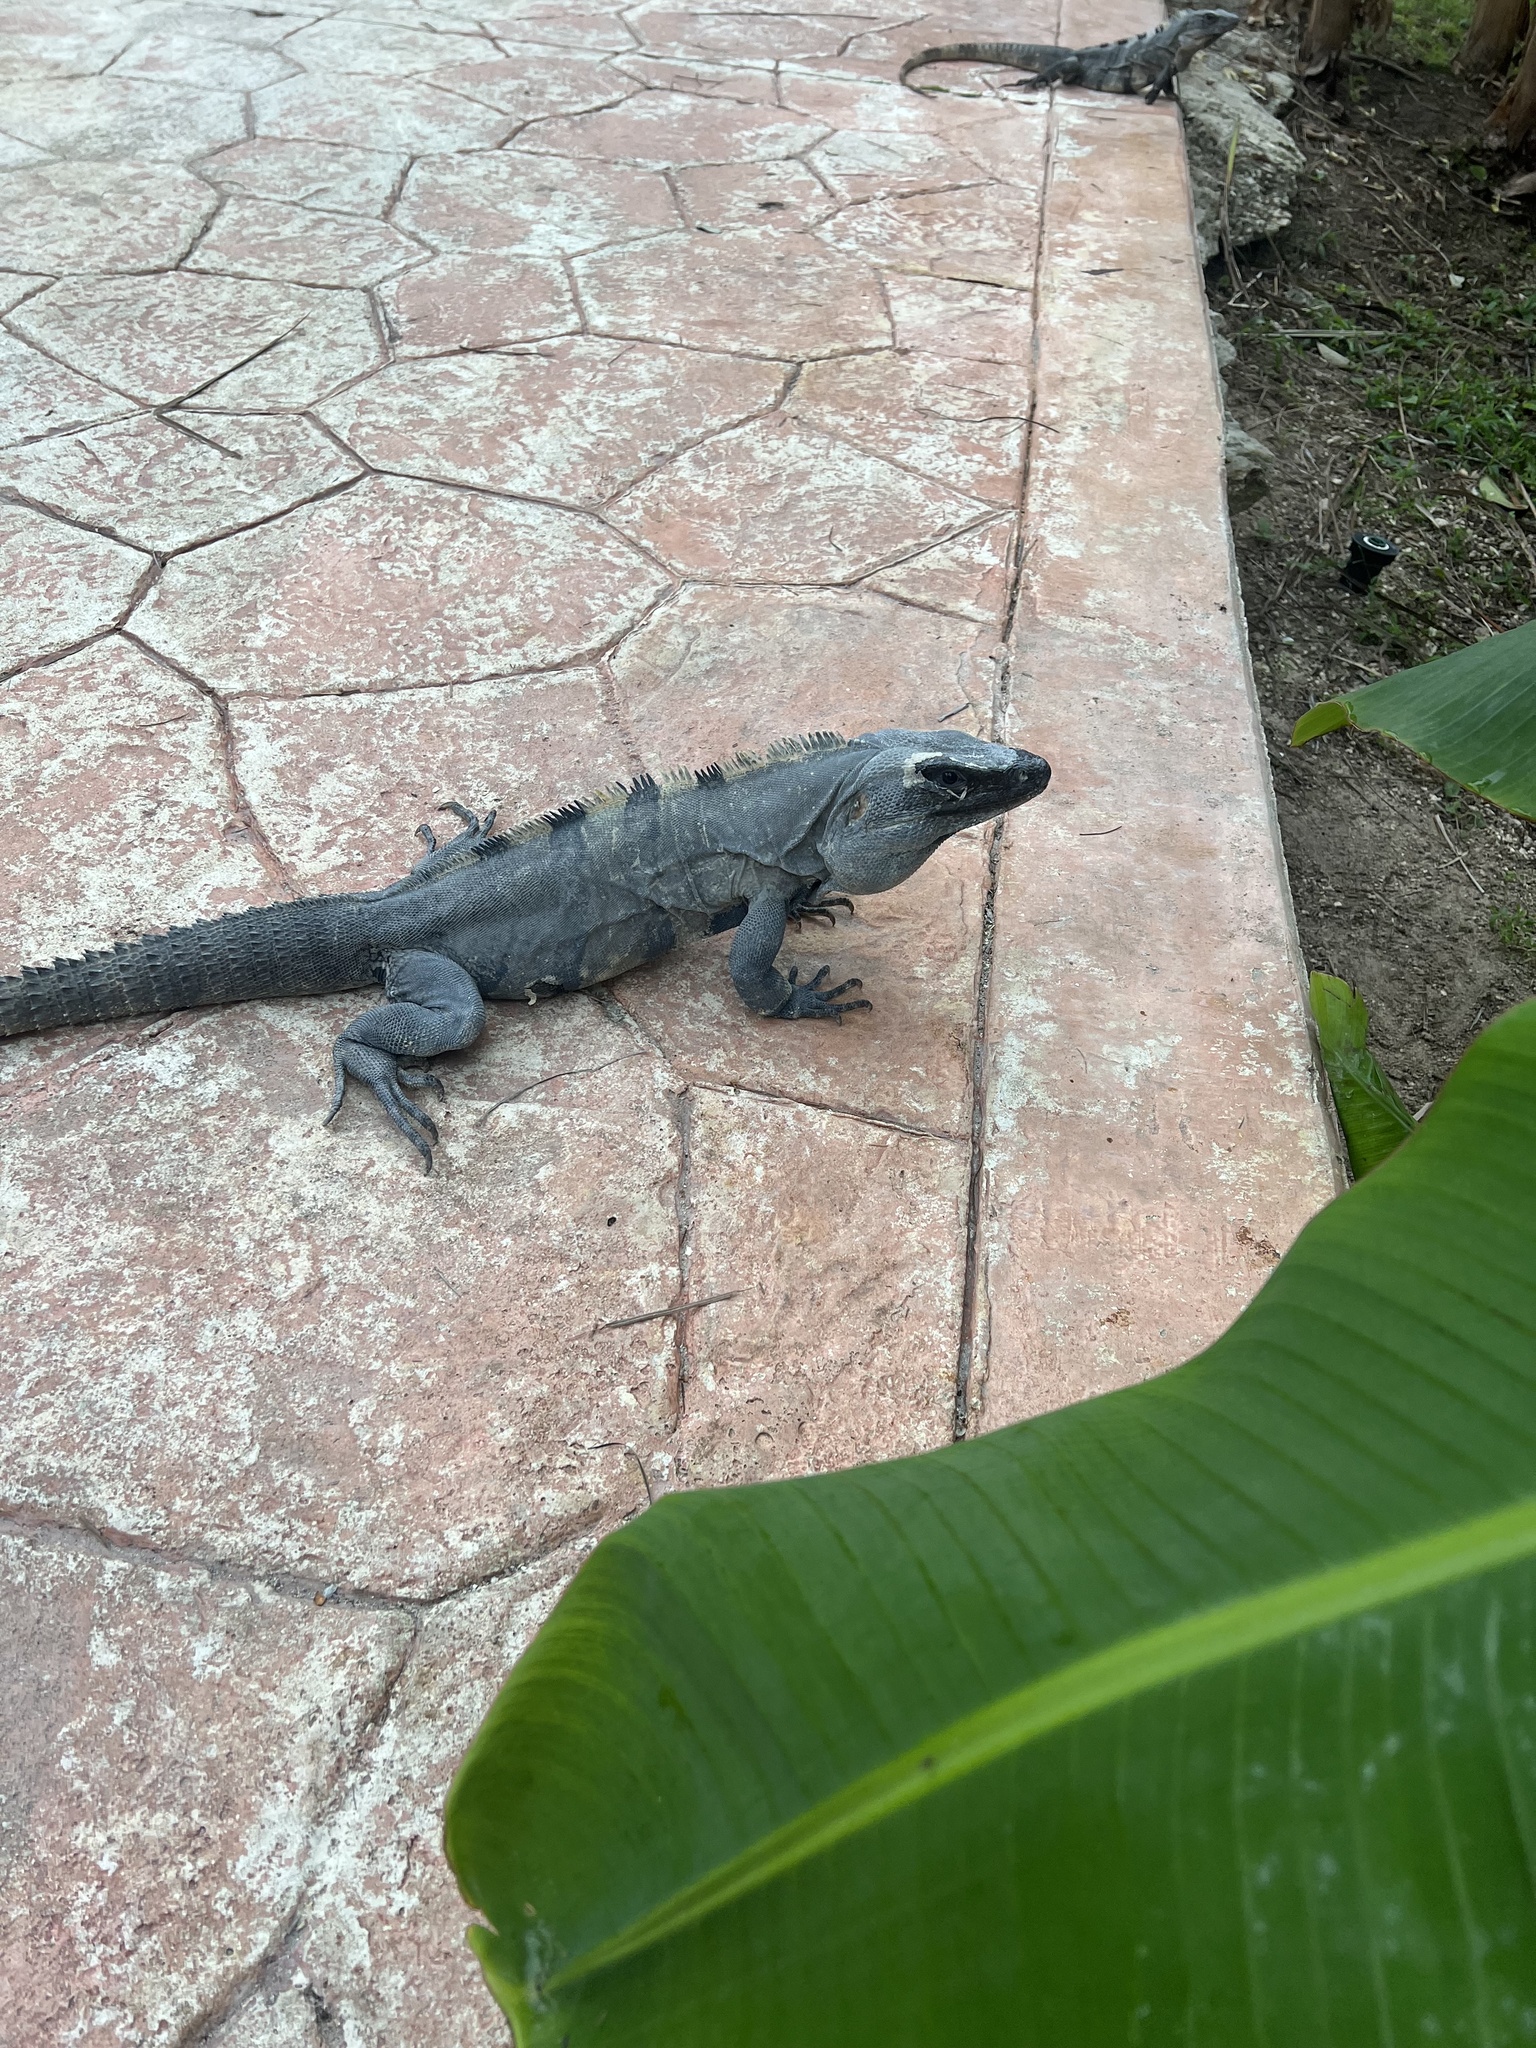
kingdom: Animalia
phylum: Chordata
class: Squamata
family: Iguanidae
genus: Ctenosaura
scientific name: Ctenosaura similis
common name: Black spiny-tailed iguana
